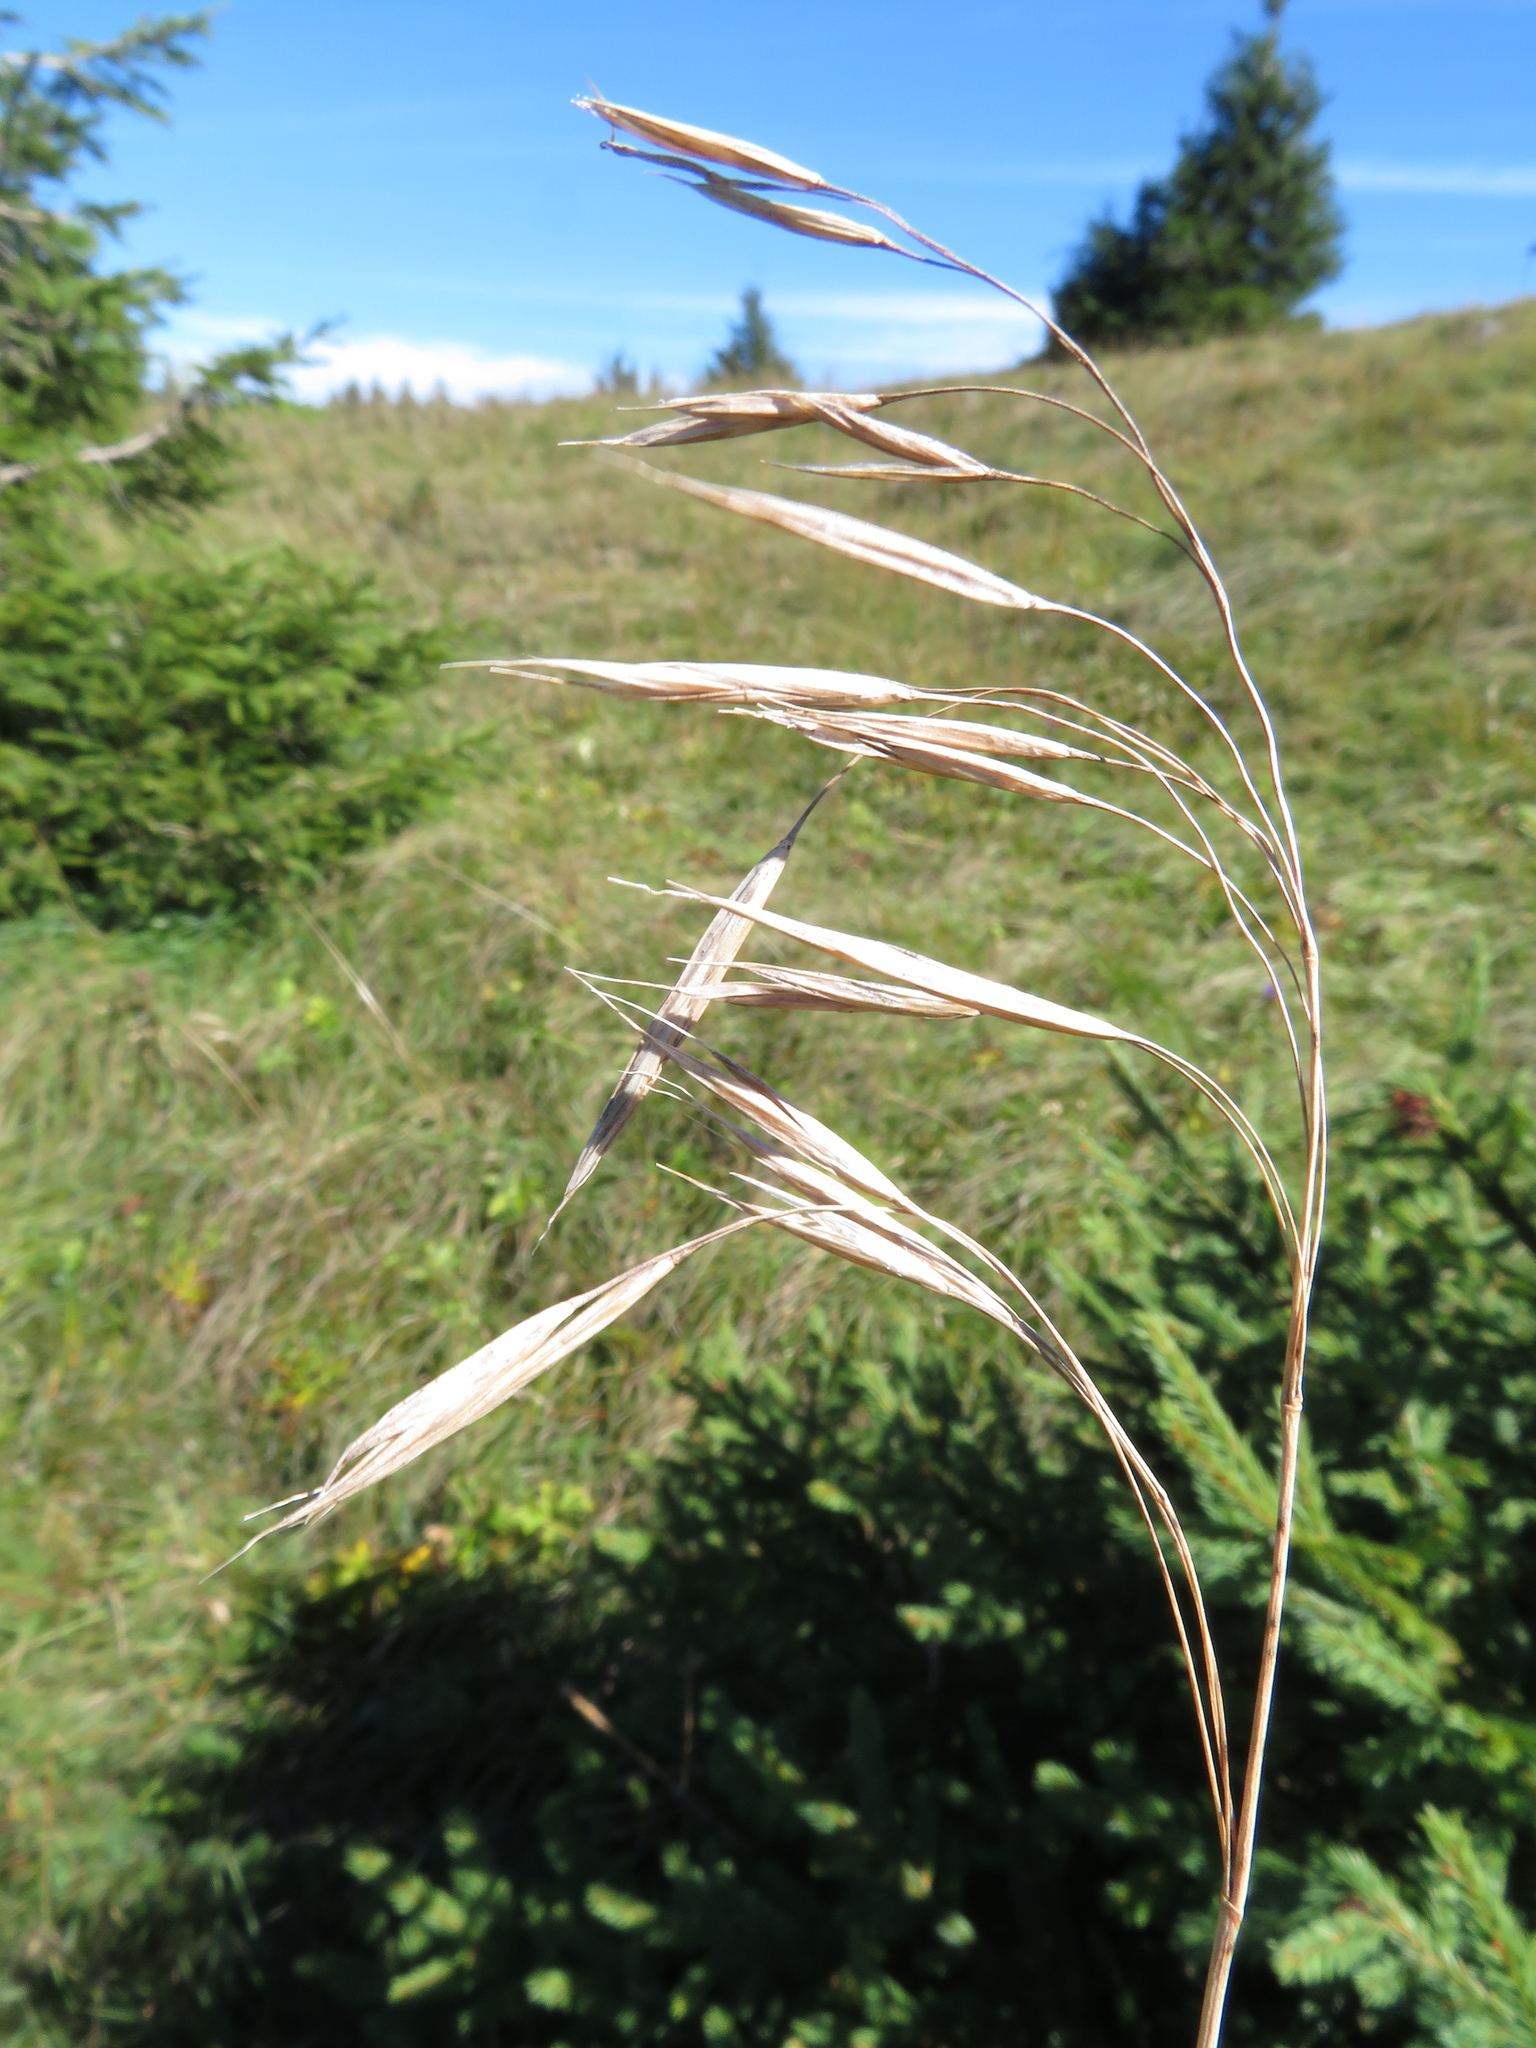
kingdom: Plantae
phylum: Tracheophyta
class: Liliopsida
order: Poales
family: Poaceae
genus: Bromus
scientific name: Bromus pannonicus
